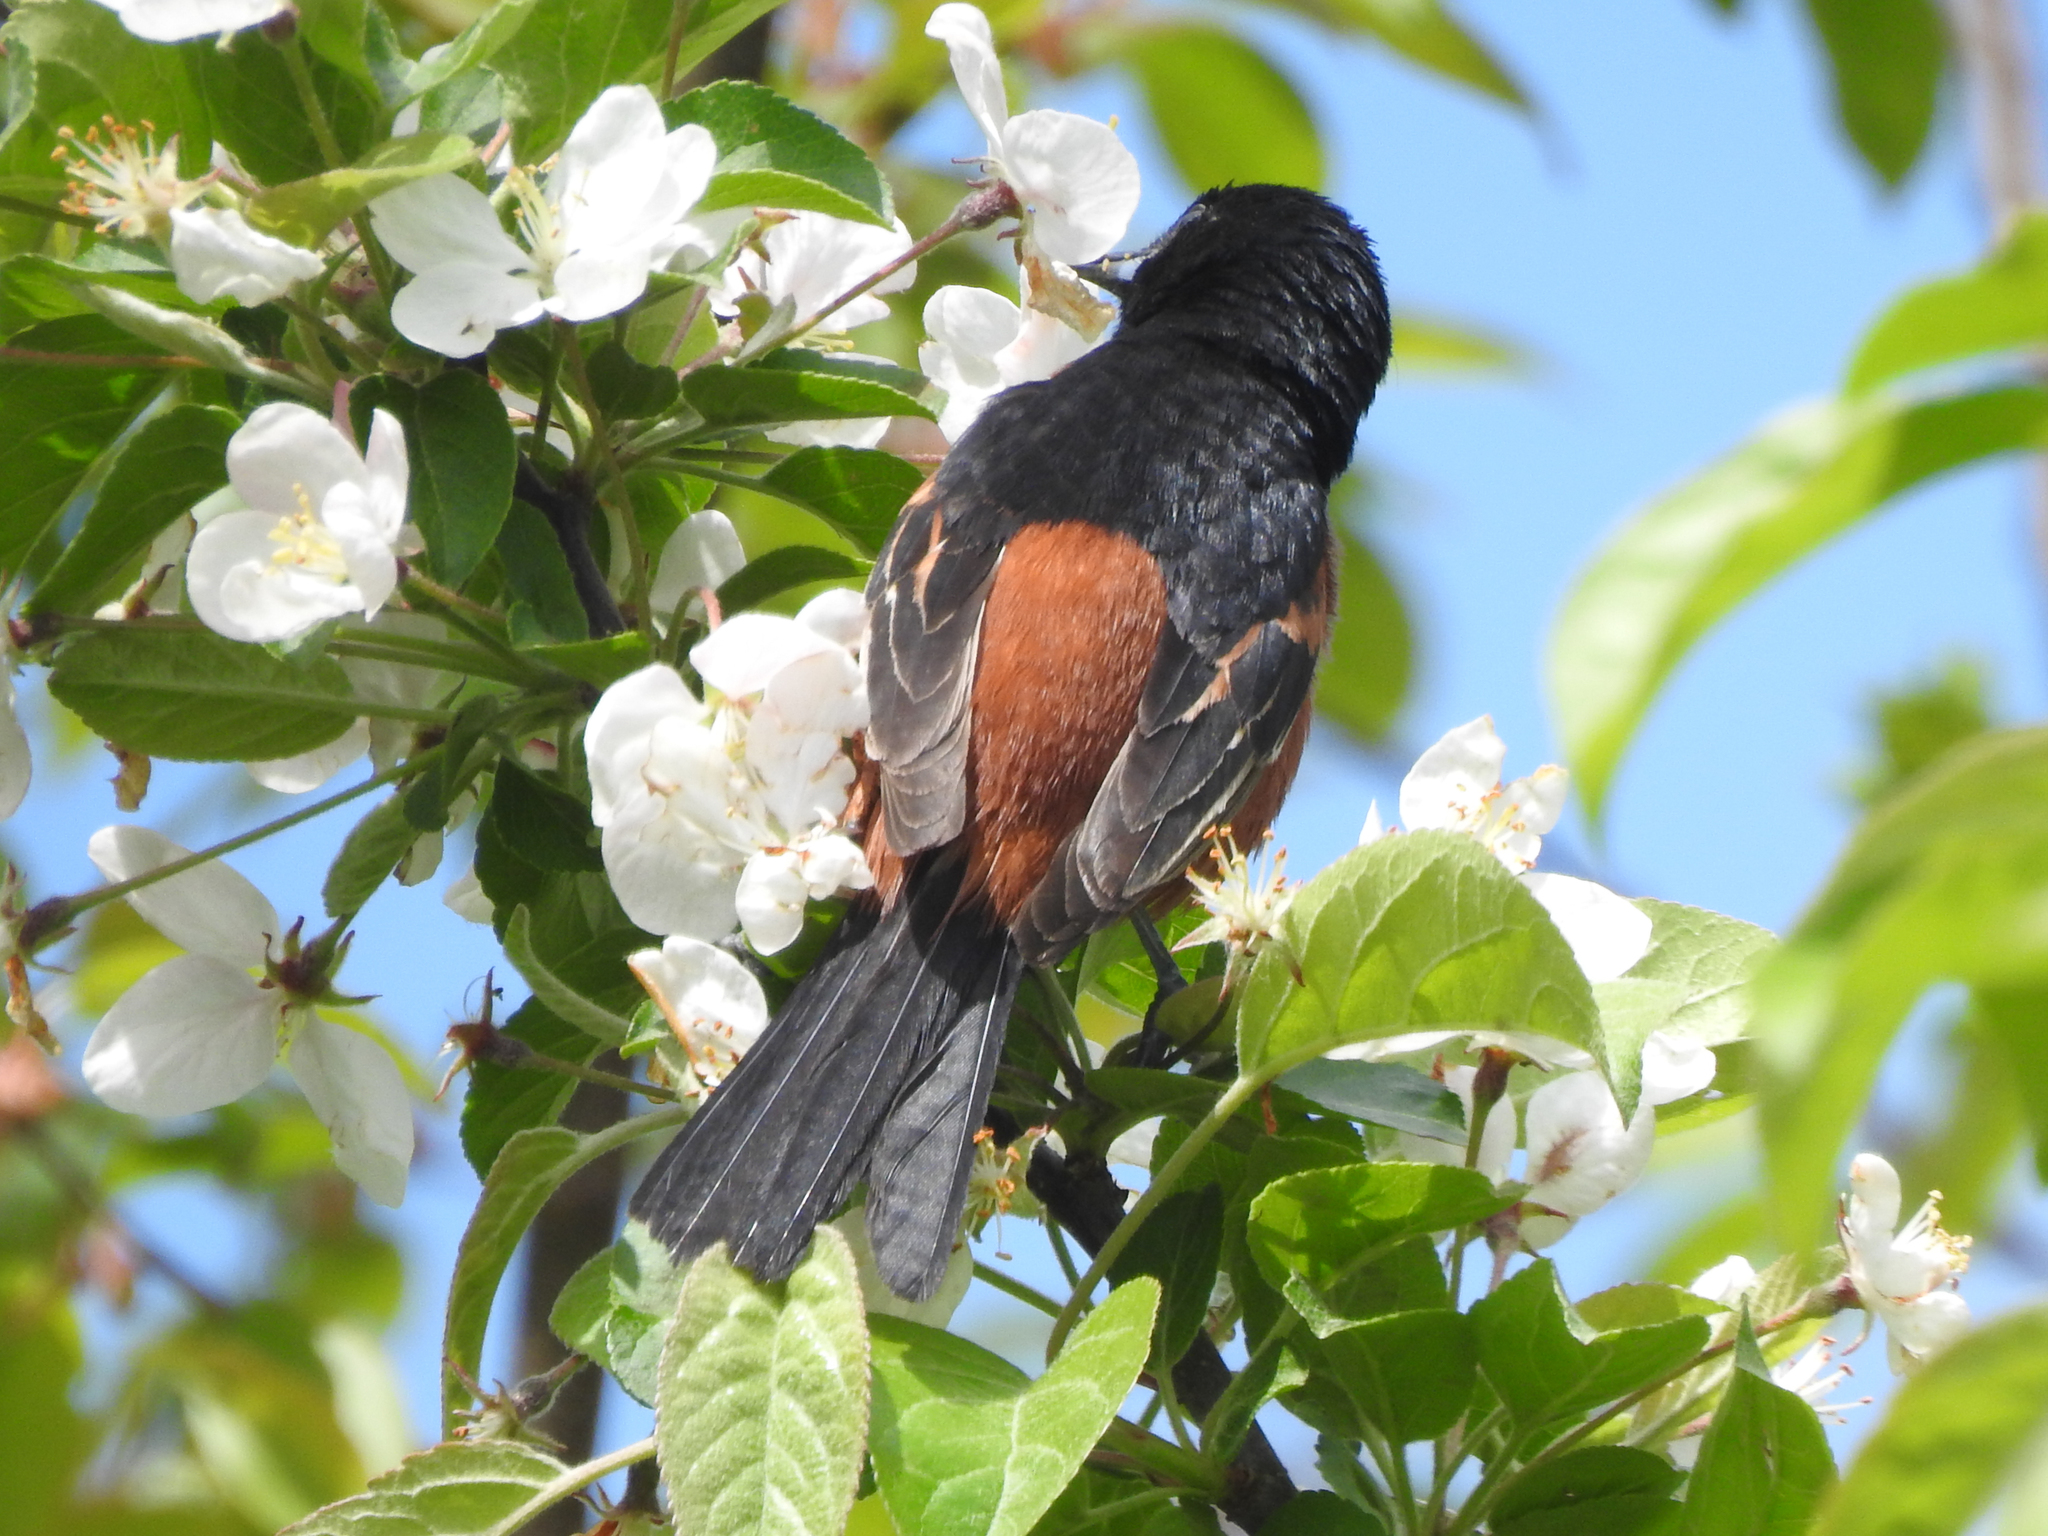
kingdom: Animalia
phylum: Chordata
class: Aves
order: Passeriformes
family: Icteridae
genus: Icterus
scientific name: Icterus spurius
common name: Orchard oriole
